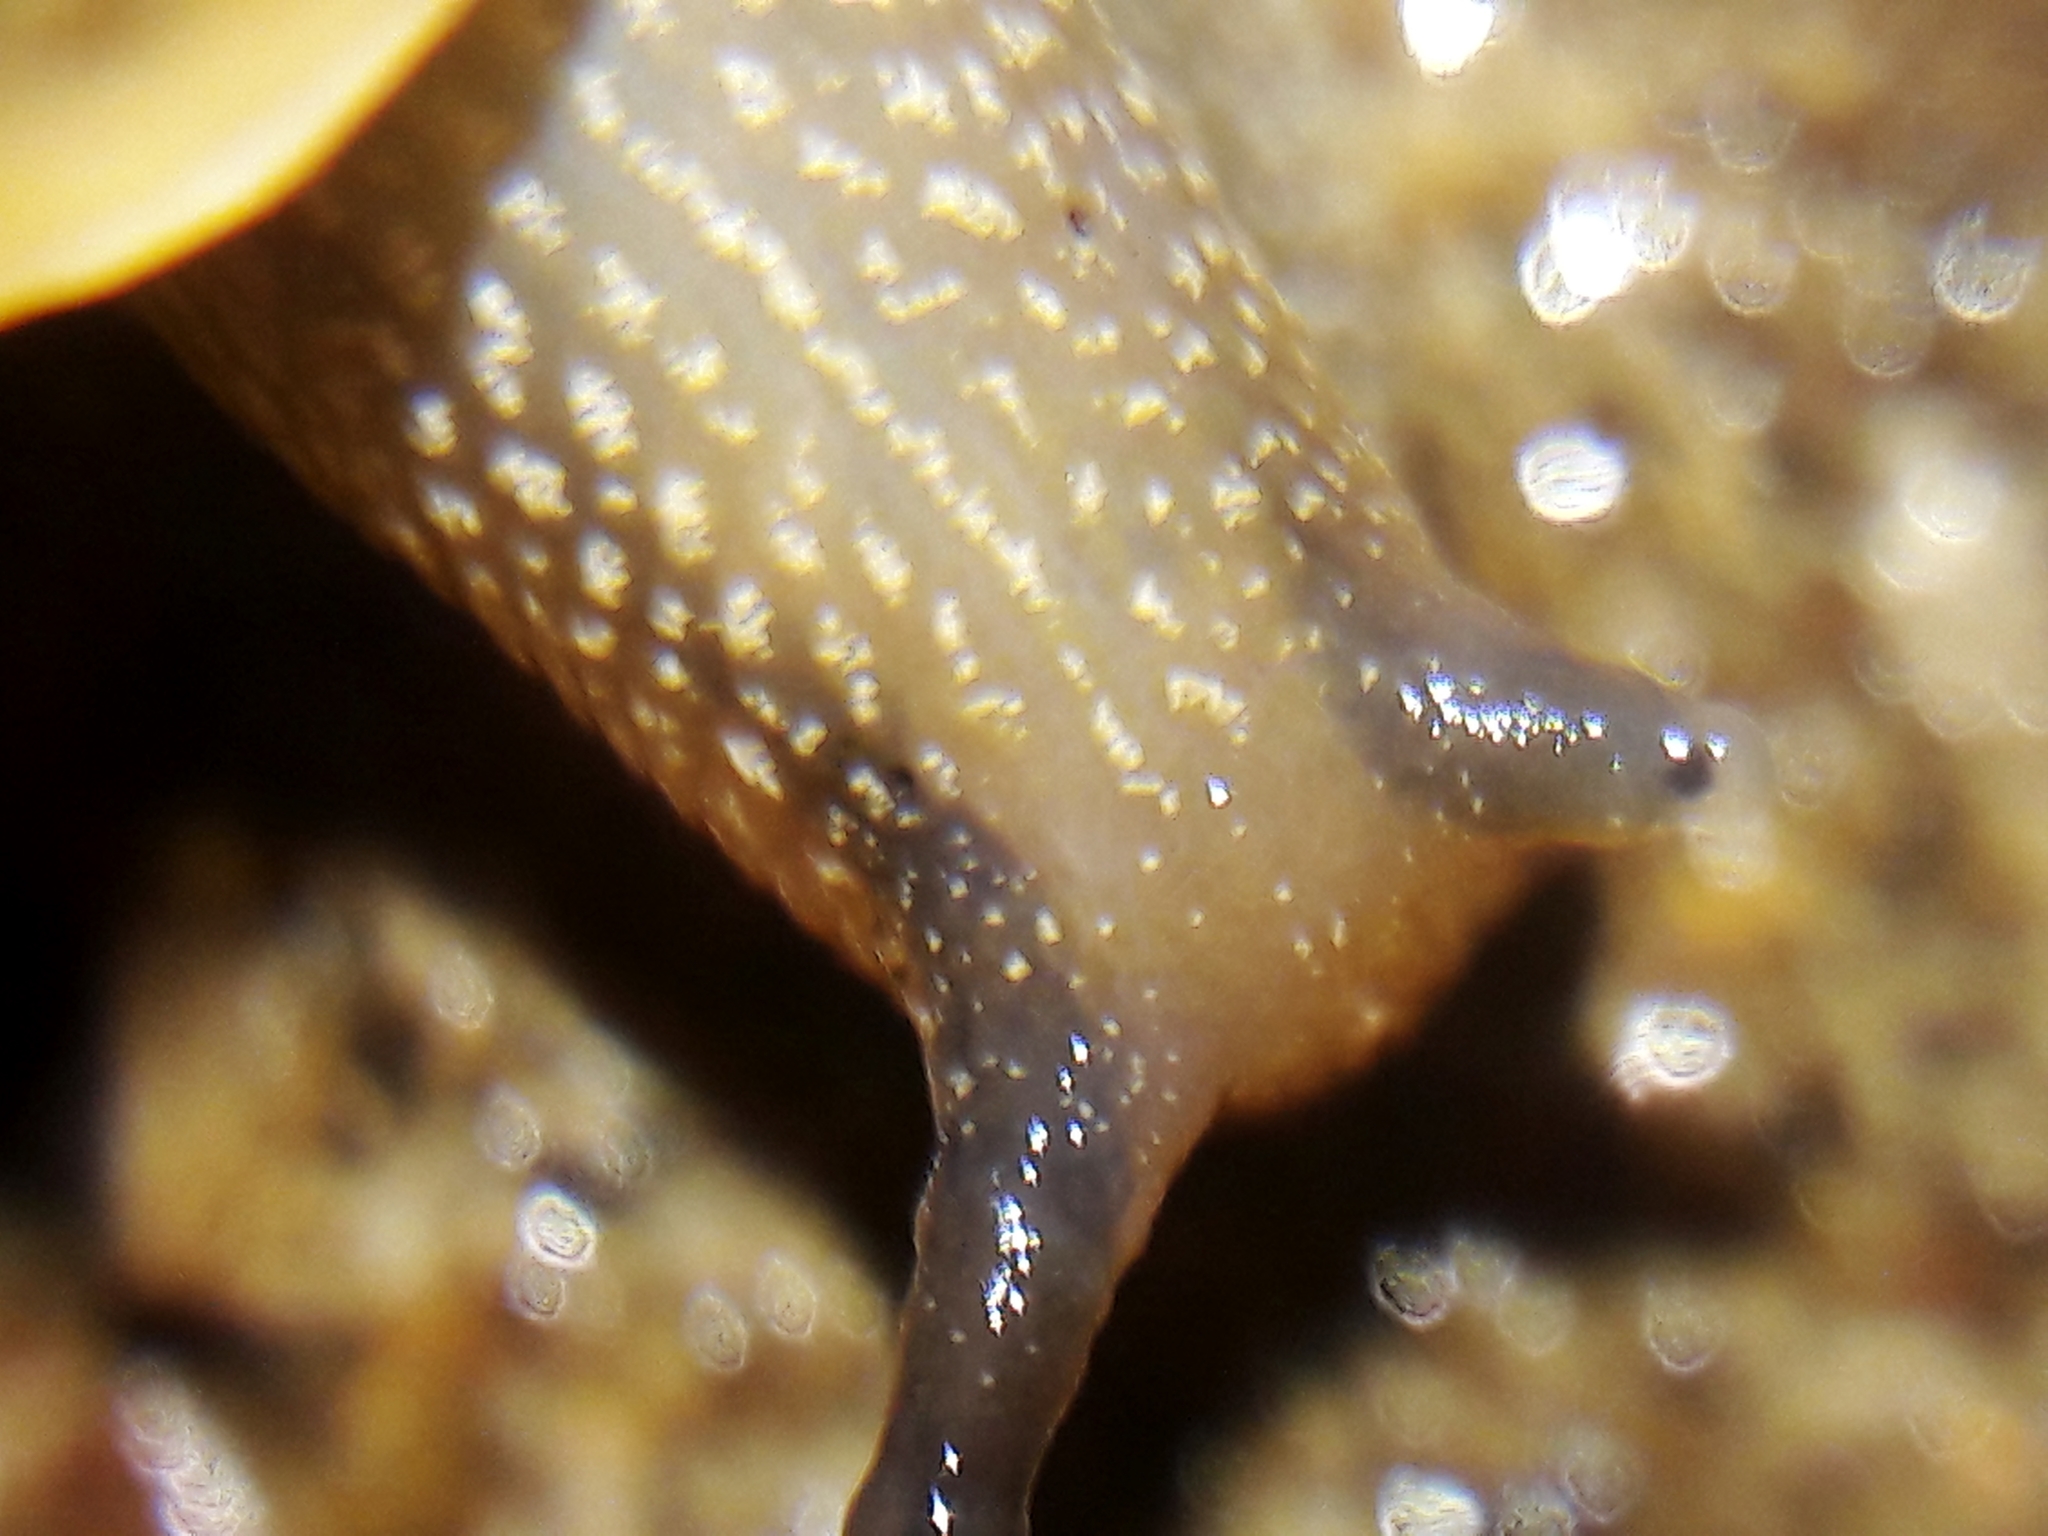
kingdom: Animalia
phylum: Mollusca
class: Gastropoda
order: Stylommatophora
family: Camaenidae
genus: Bradybaena
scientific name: Bradybaena similaris
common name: Asian trampsnail
